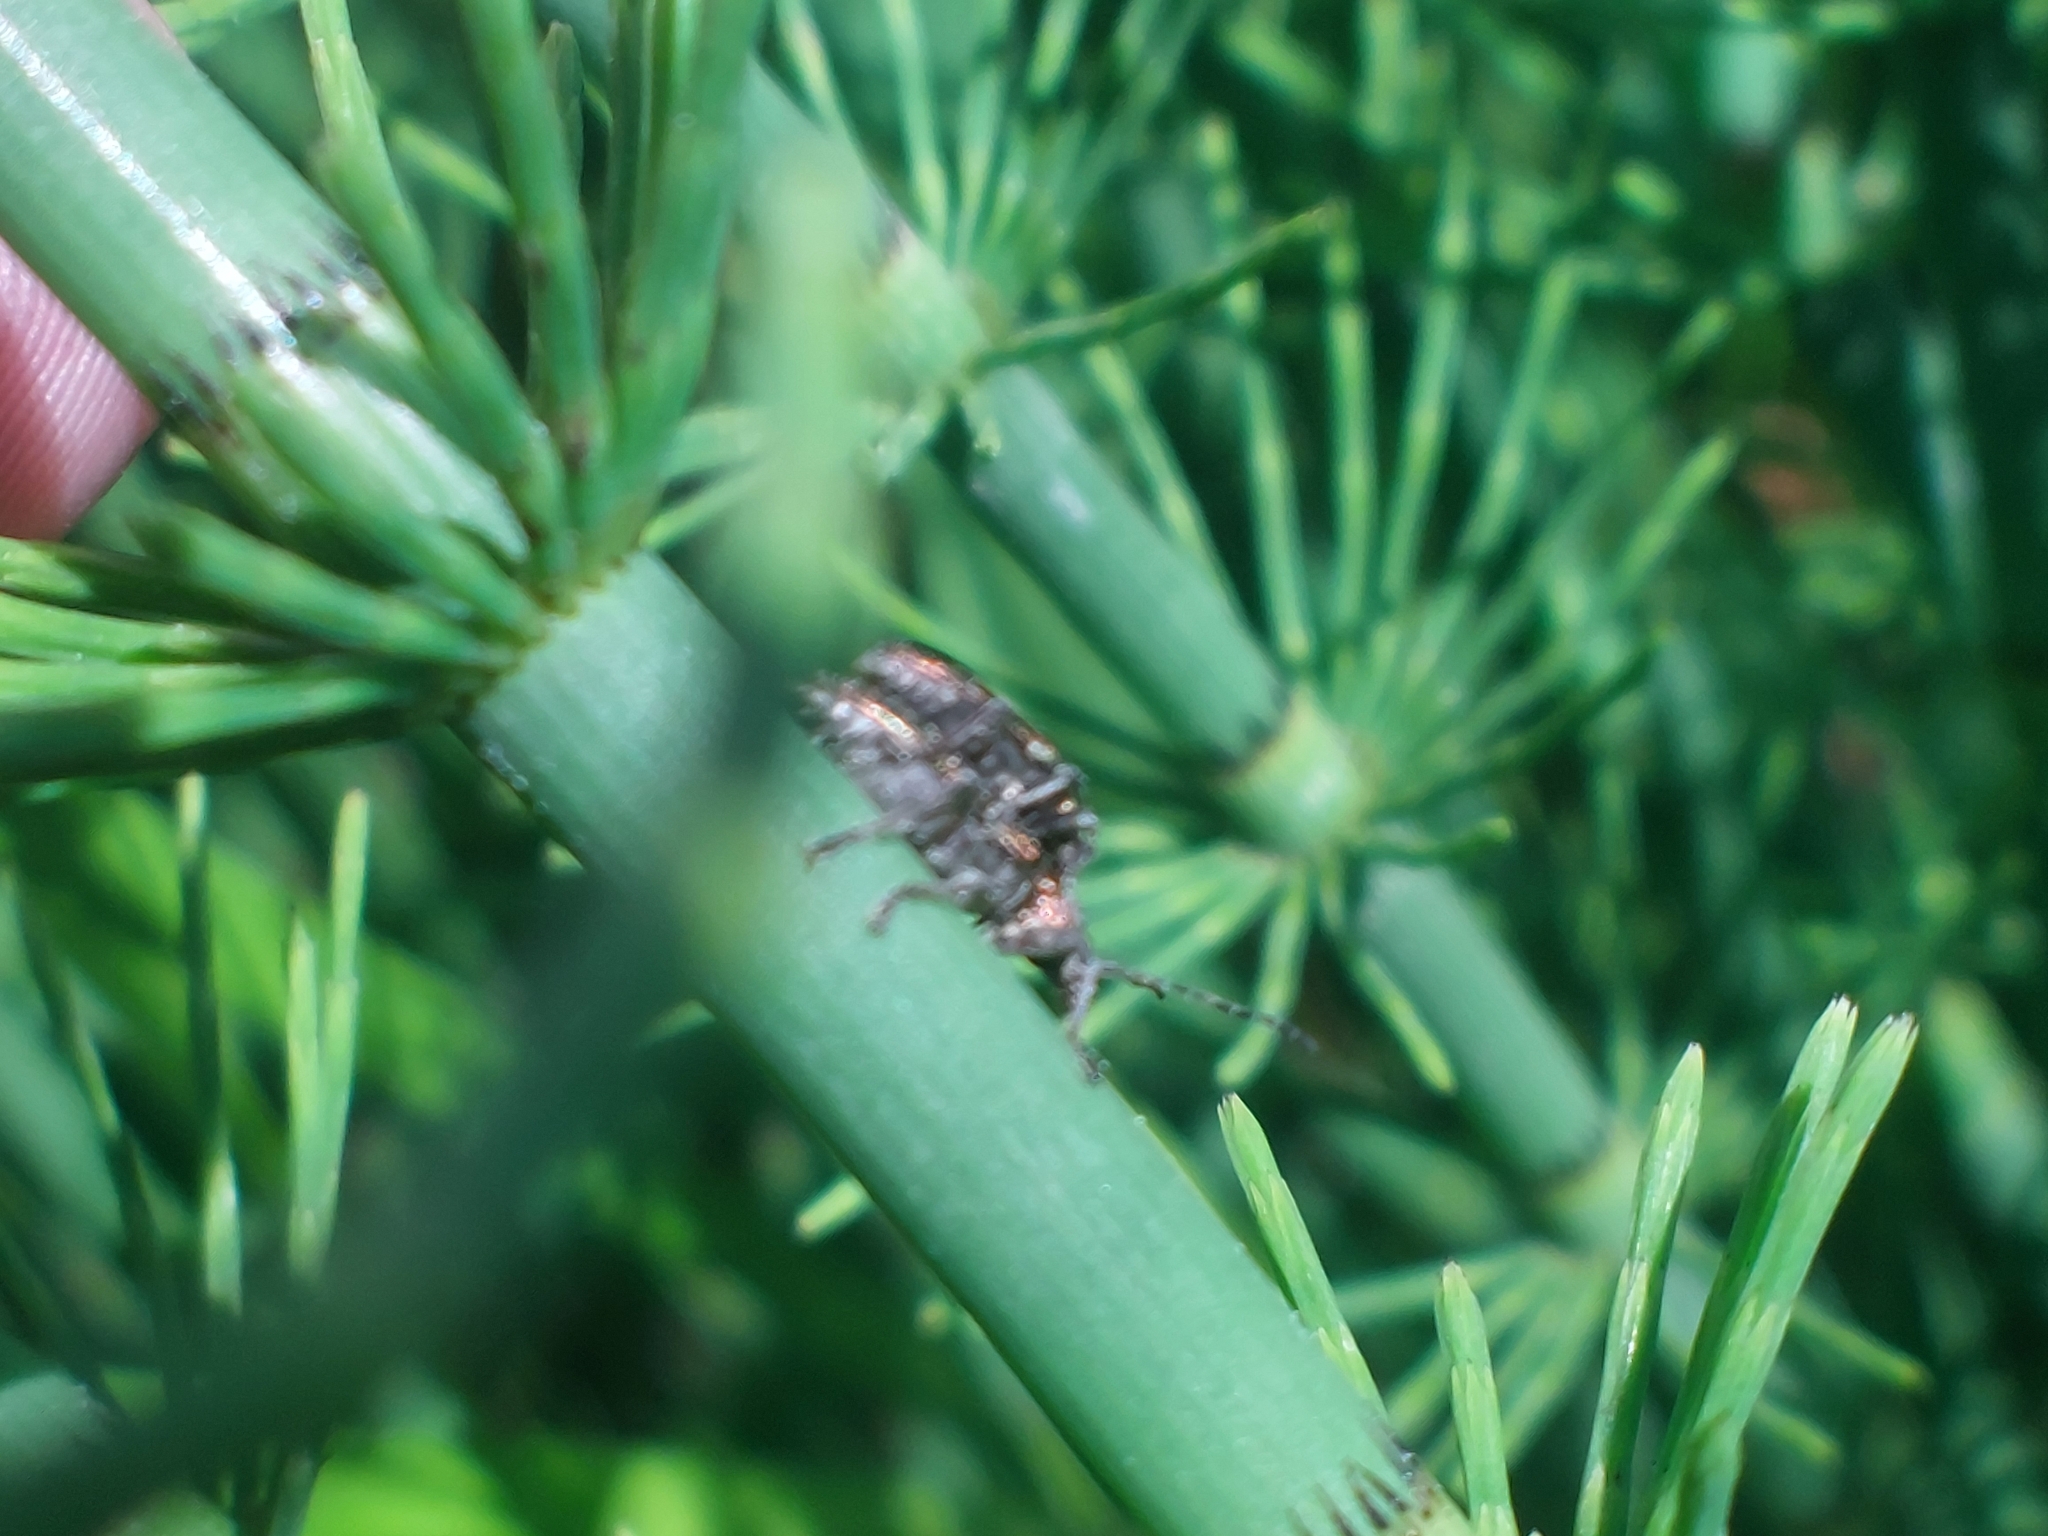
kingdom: Animalia
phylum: Arthropoda
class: Insecta
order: Coleoptera
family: Chrysomelidae
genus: Donacia
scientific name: Donacia semicuprea
